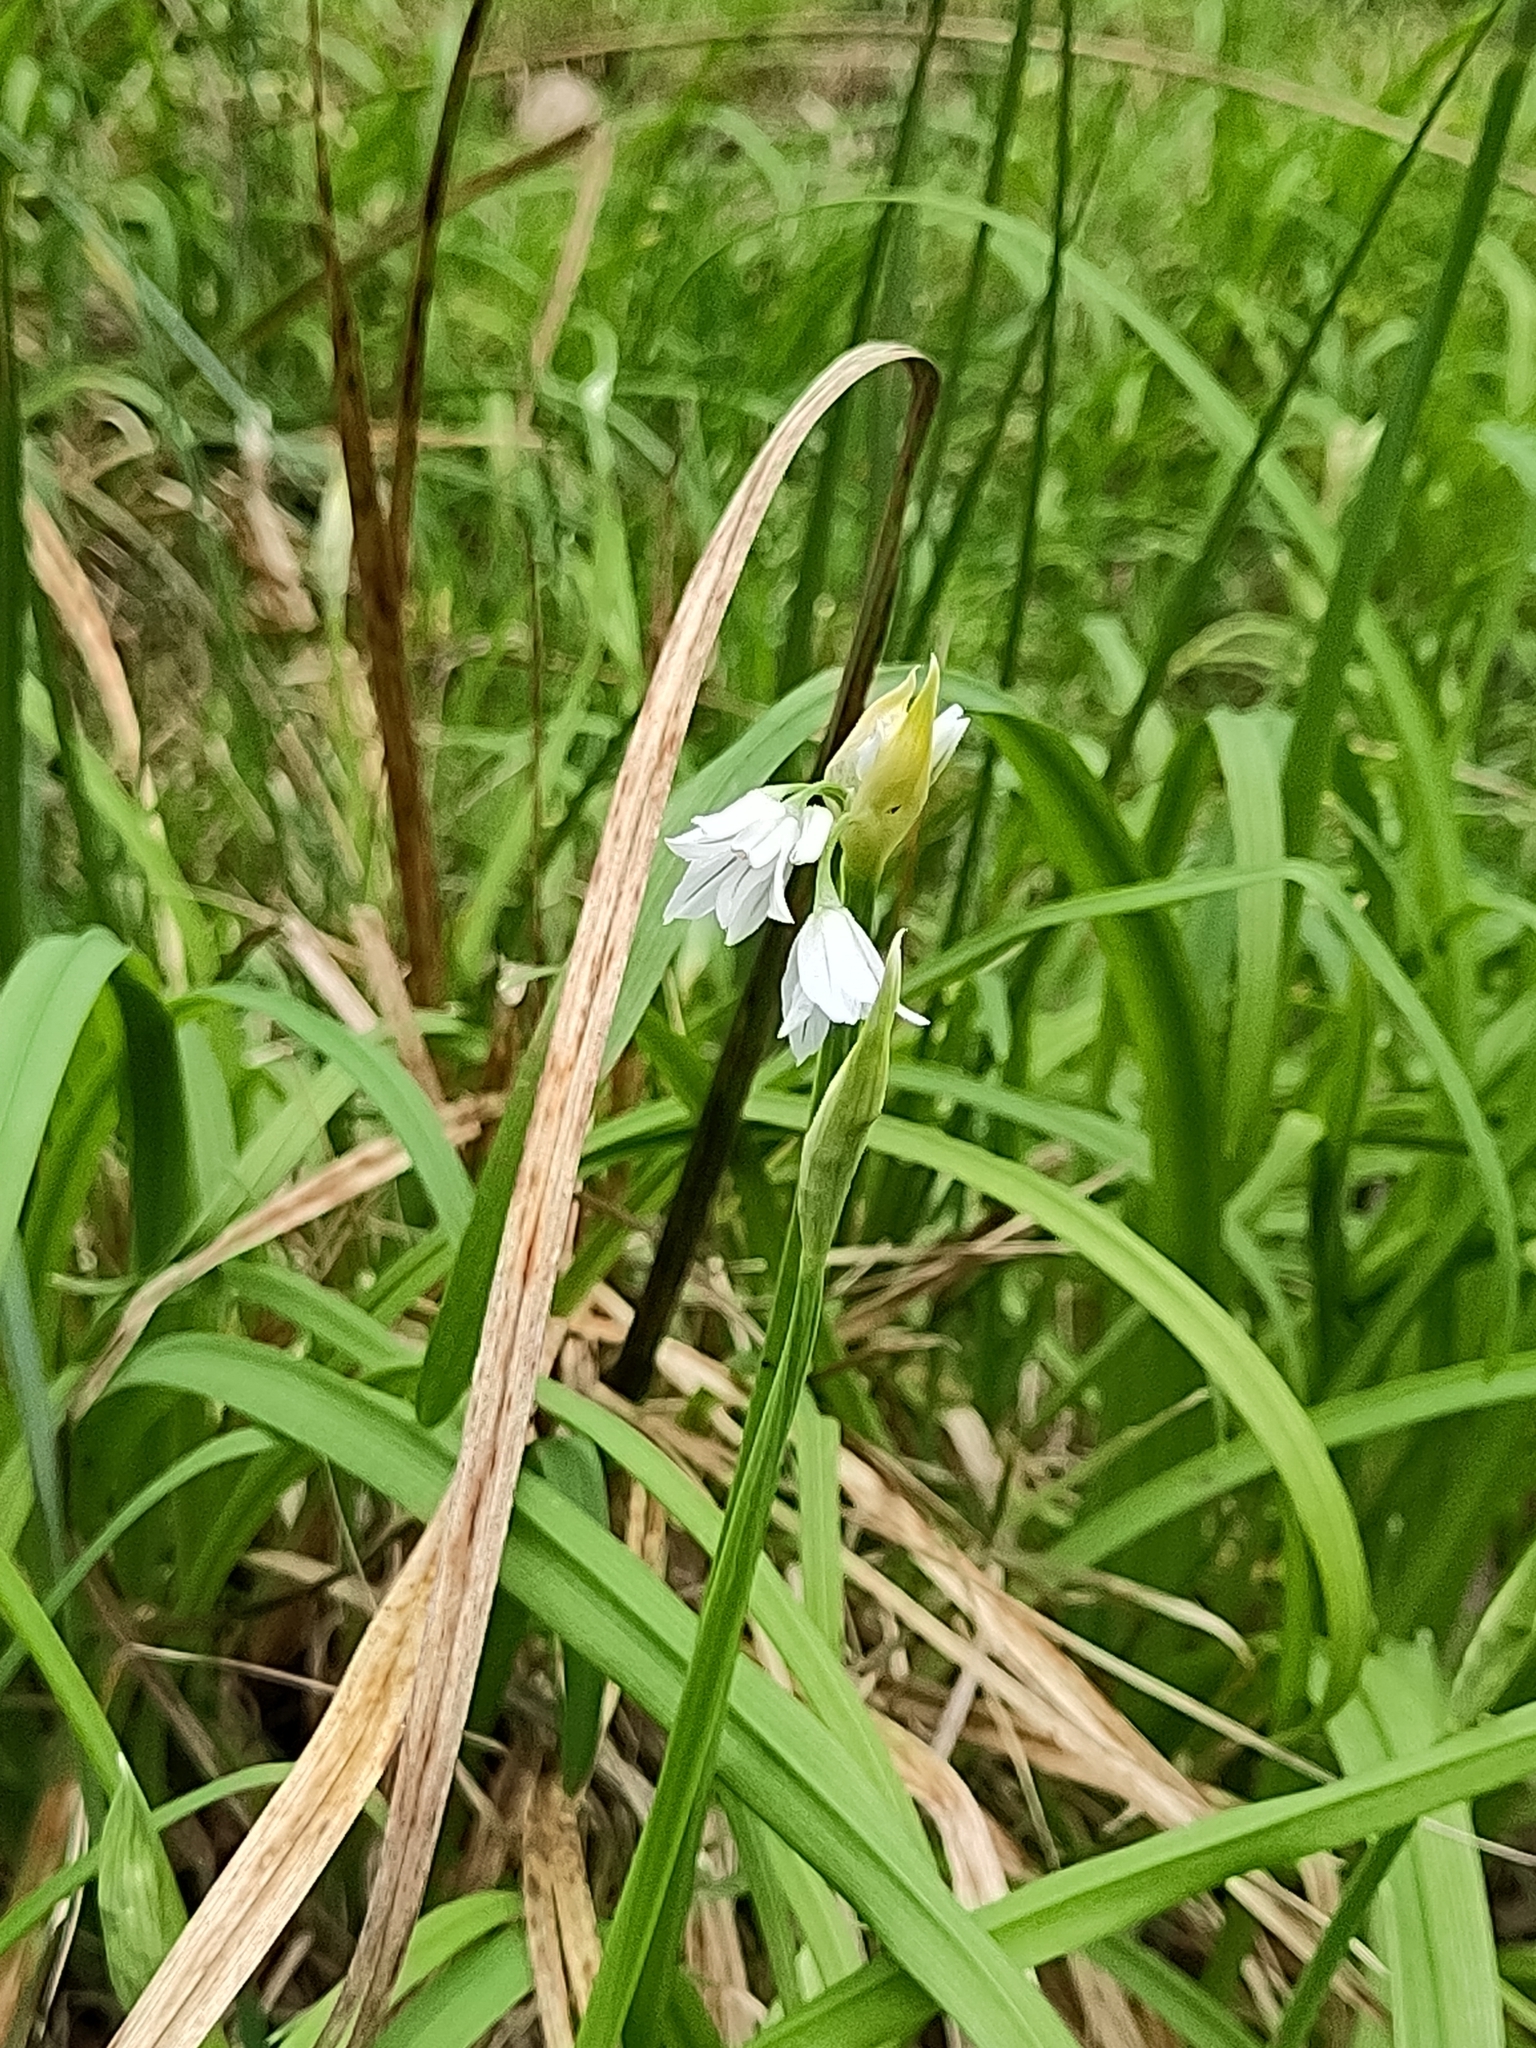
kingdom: Plantae
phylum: Tracheophyta
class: Liliopsida
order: Asparagales
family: Amaryllidaceae
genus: Allium
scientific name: Allium triquetrum
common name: Three-cornered garlic
